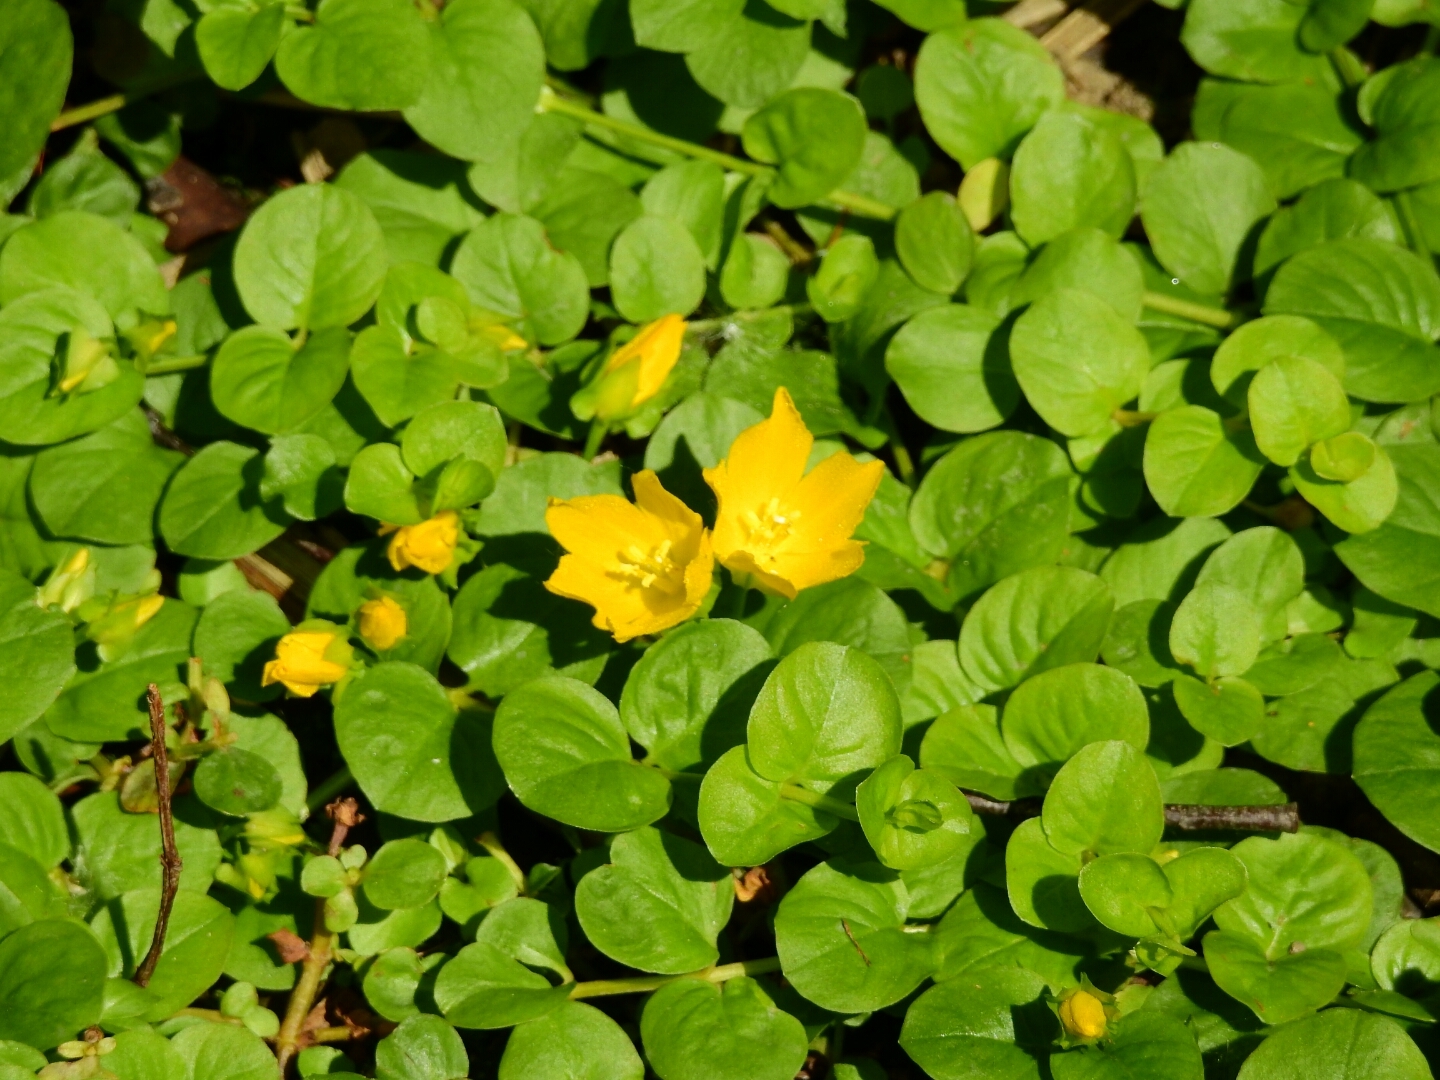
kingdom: Plantae
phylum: Tracheophyta
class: Magnoliopsida
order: Ericales
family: Primulaceae
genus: Lysimachia
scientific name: Lysimachia nummularia
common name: Moneywort
